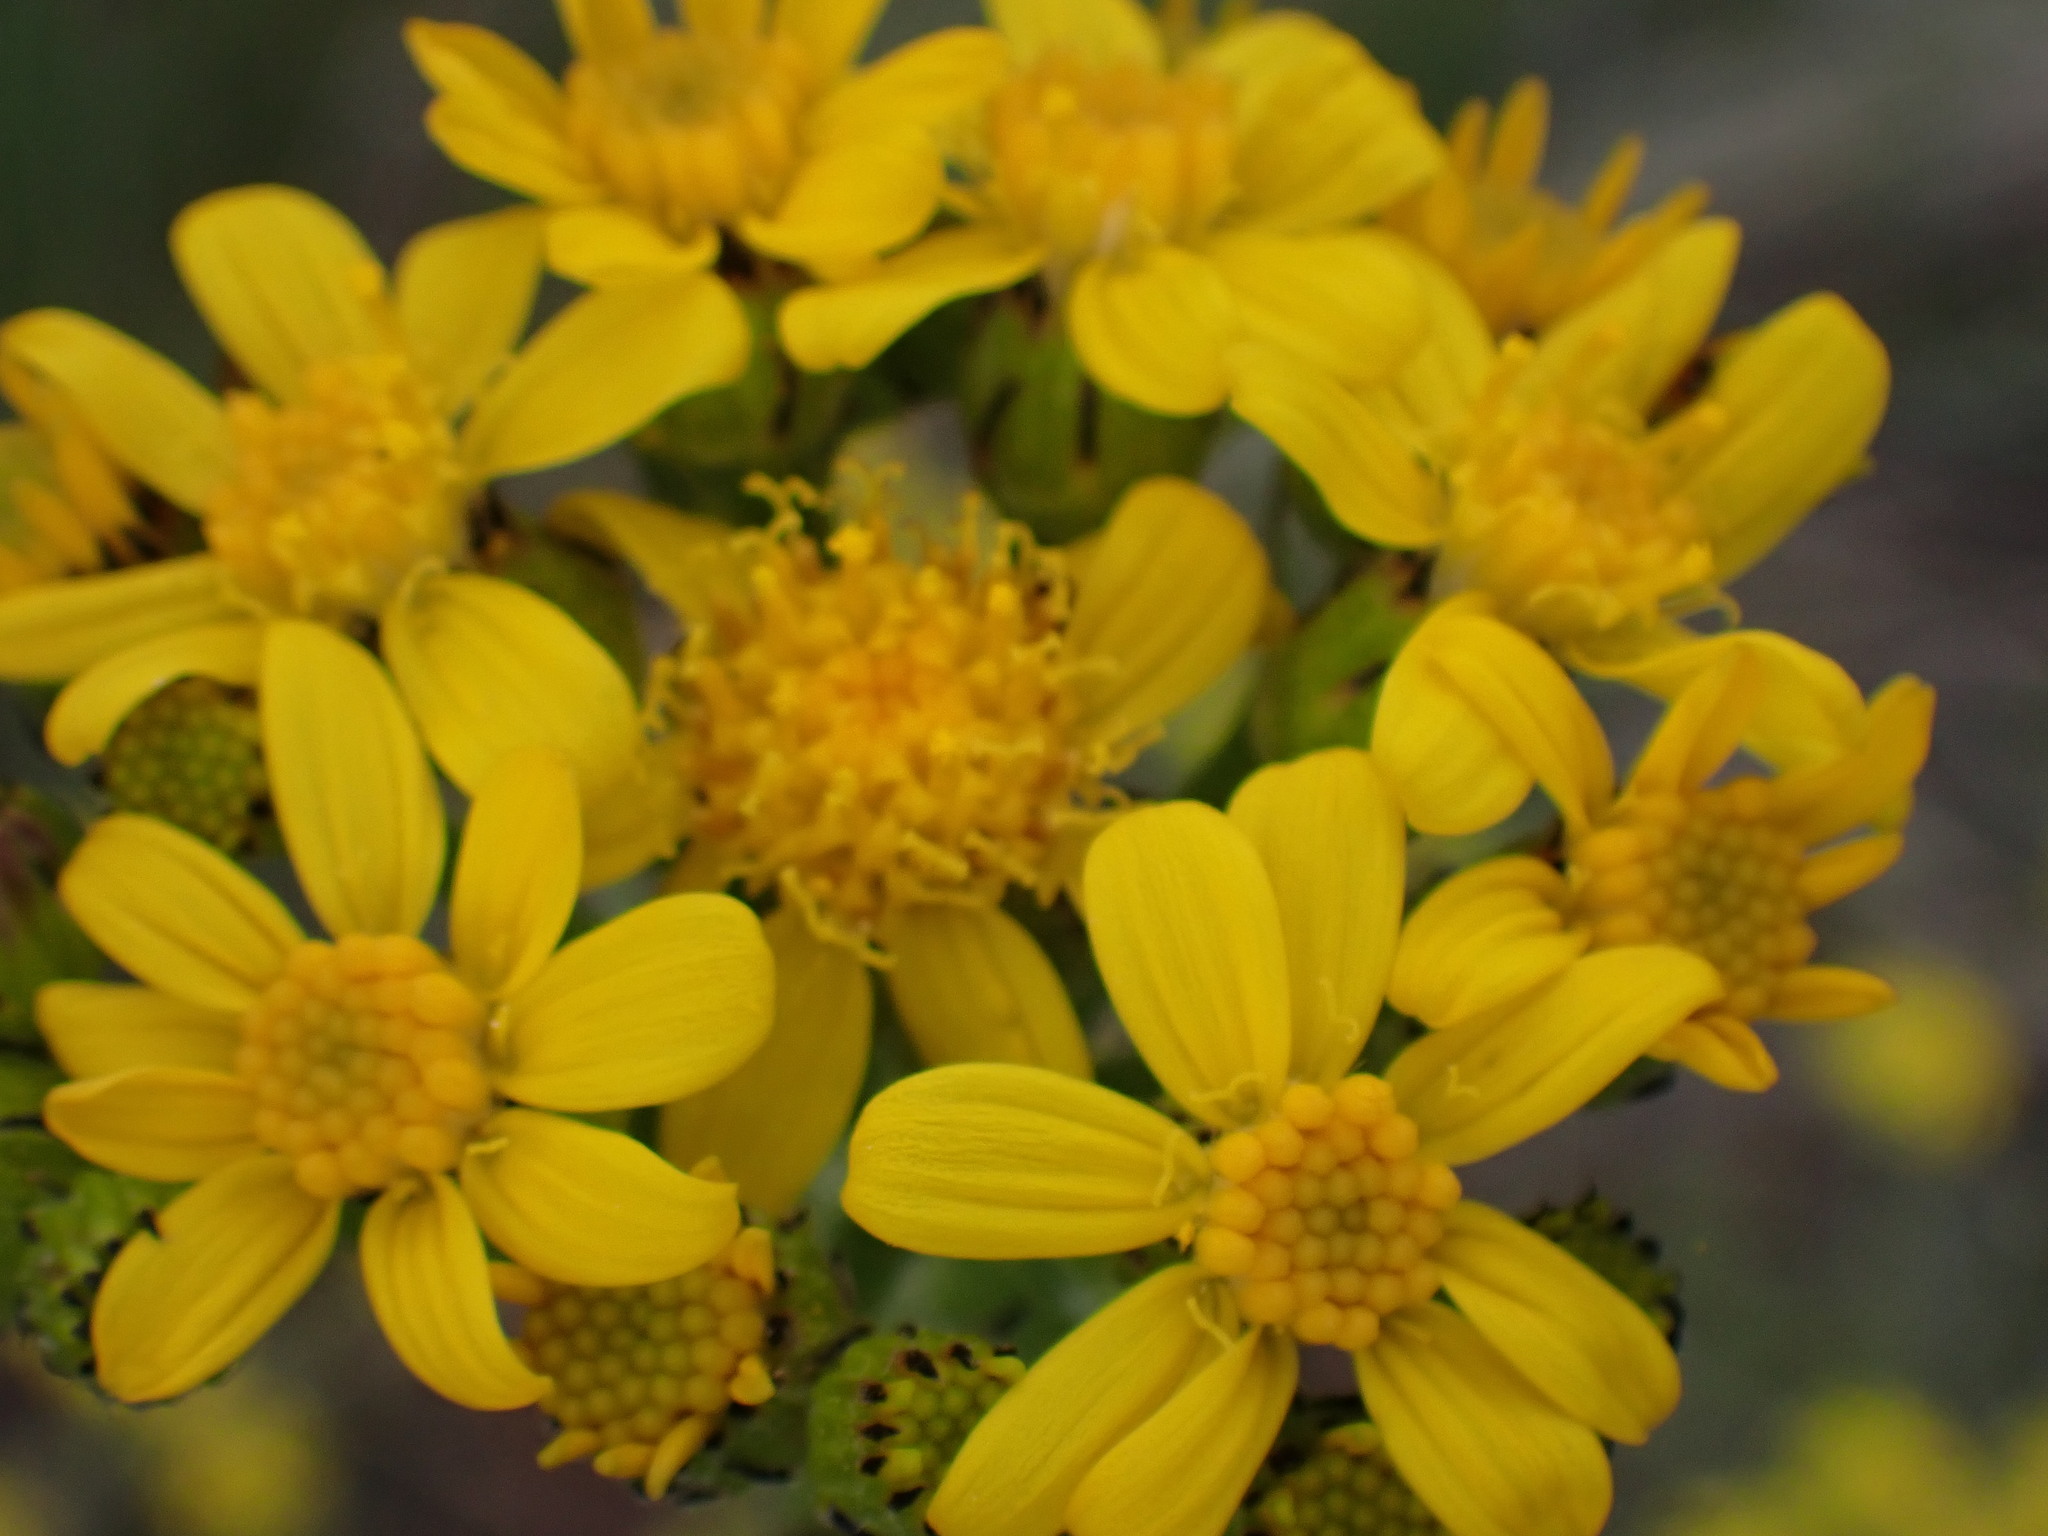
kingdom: Plantae
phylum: Tracheophyta
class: Magnoliopsida
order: Asterales
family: Asteraceae
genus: Senecio
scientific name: Senecio integerrimus
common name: Gaugeplant
